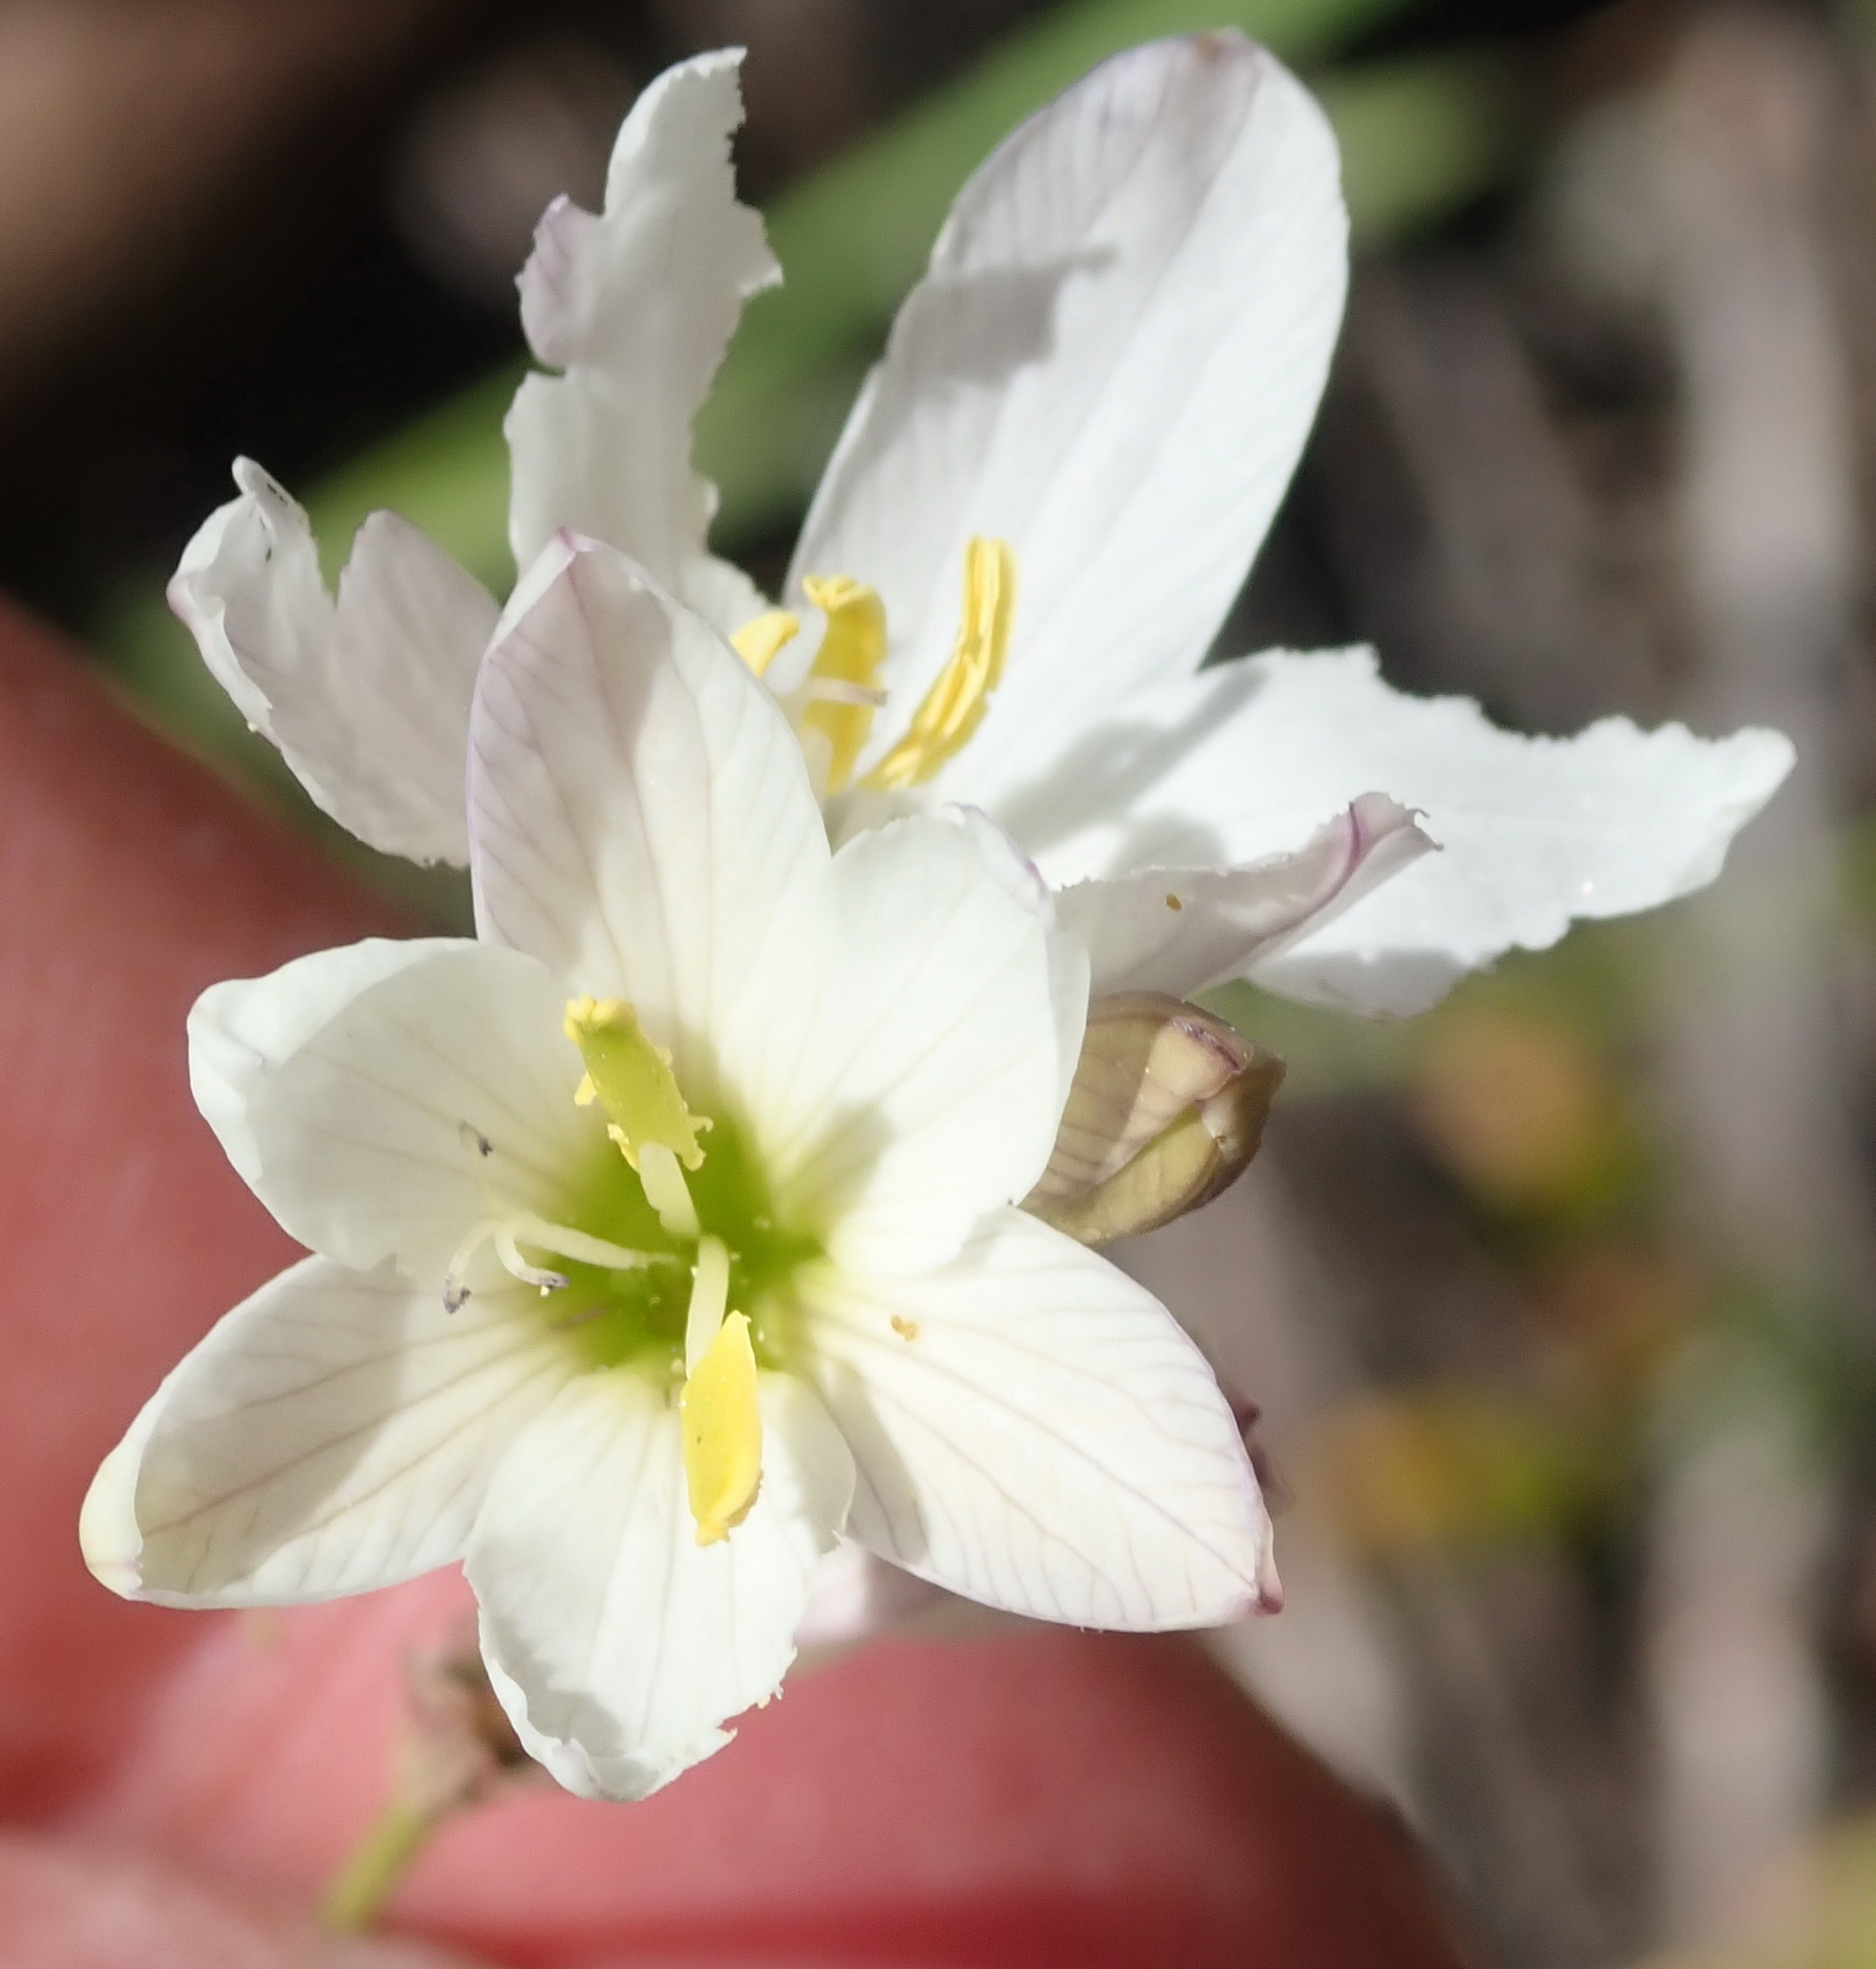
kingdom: Plantae
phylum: Tracheophyta
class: Liliopsida
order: Asparagales
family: Iridaceae
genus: Ixia
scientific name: Ixia orientalis
